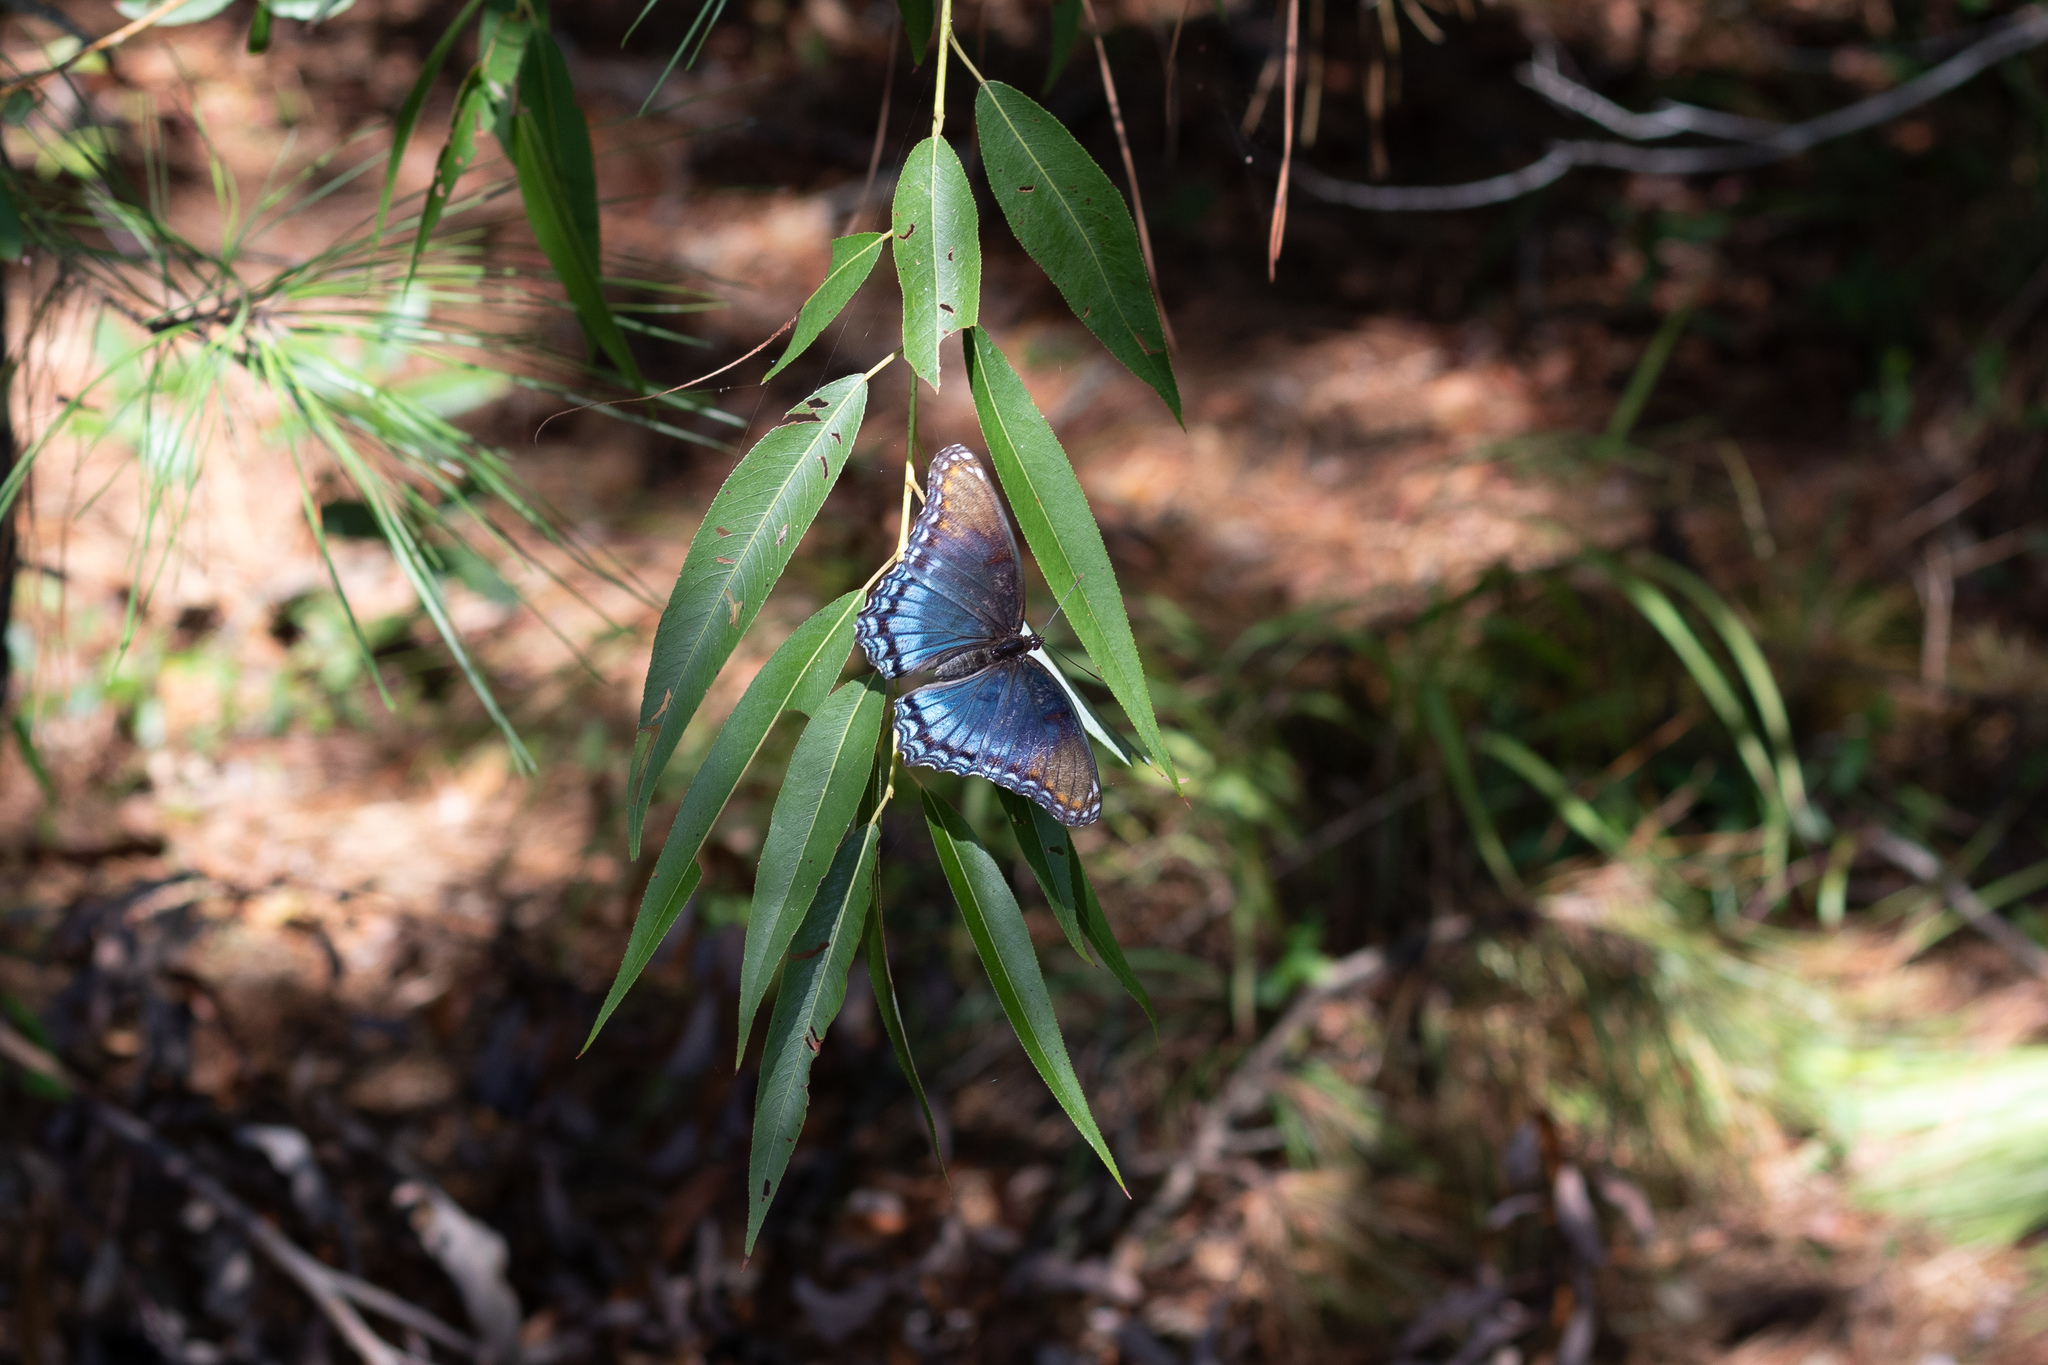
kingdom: Animalia
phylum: Arthropoda
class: Insecta
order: Lepidoptera
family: Nymphalidae
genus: Limenitis
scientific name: Limenitis astyanax
